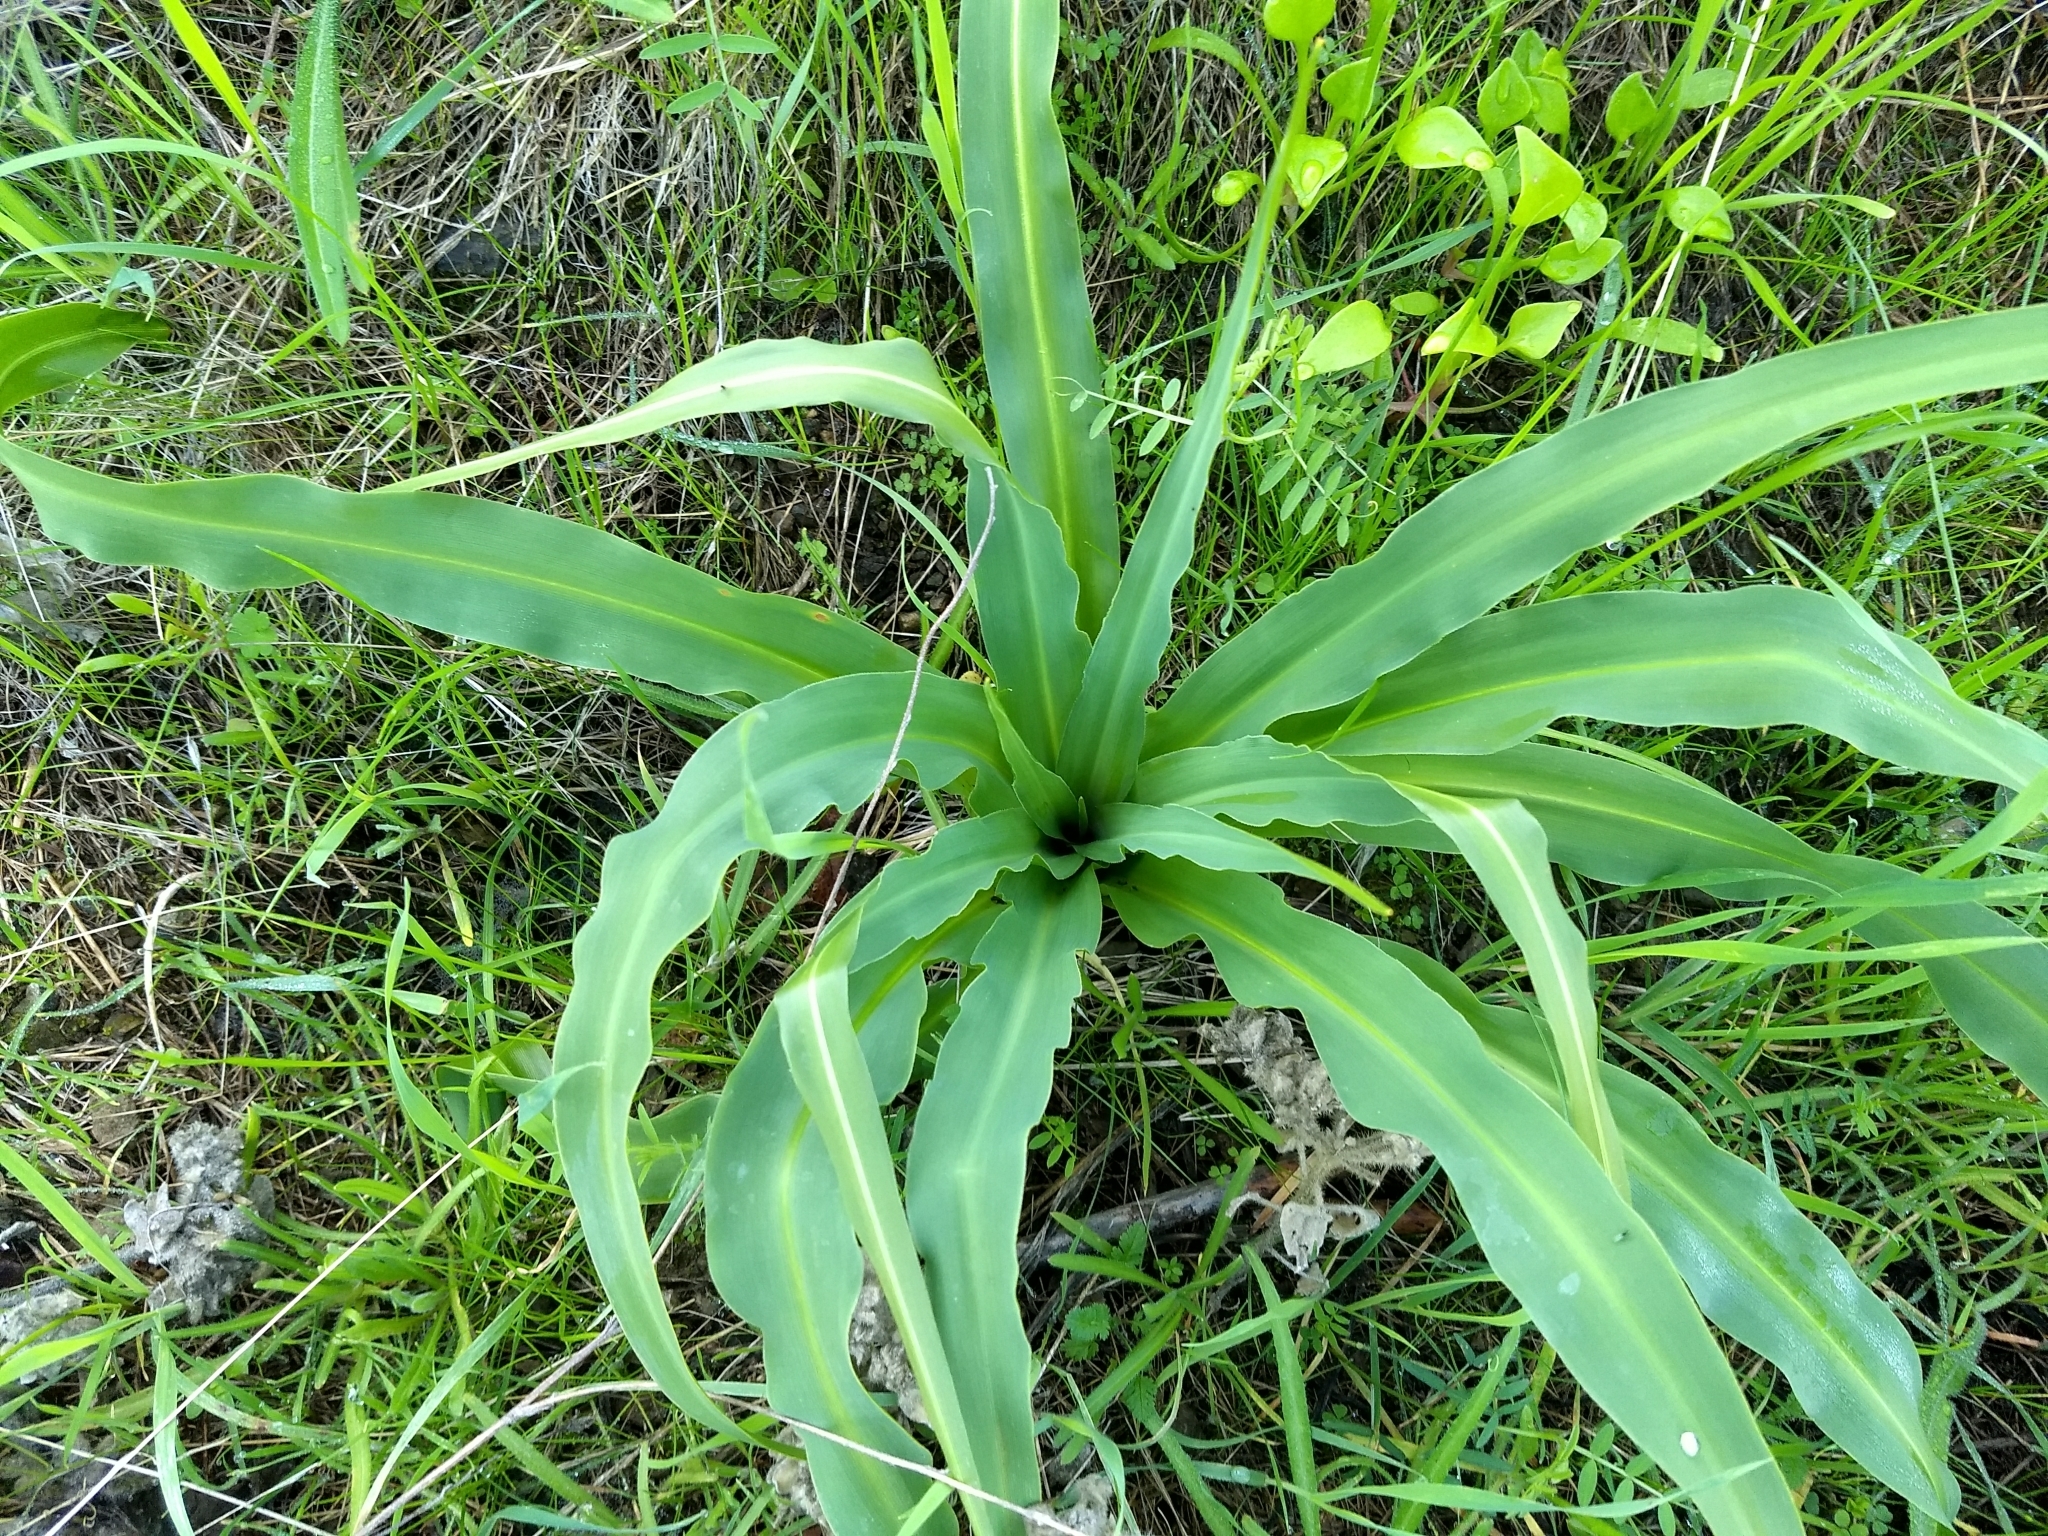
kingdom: Plantae
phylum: Tracheophyta
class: Liliopsida
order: Asparagales
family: Asparagaceae
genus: Chlorogalum
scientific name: Chlorogalum pomeridianum
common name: Amole
